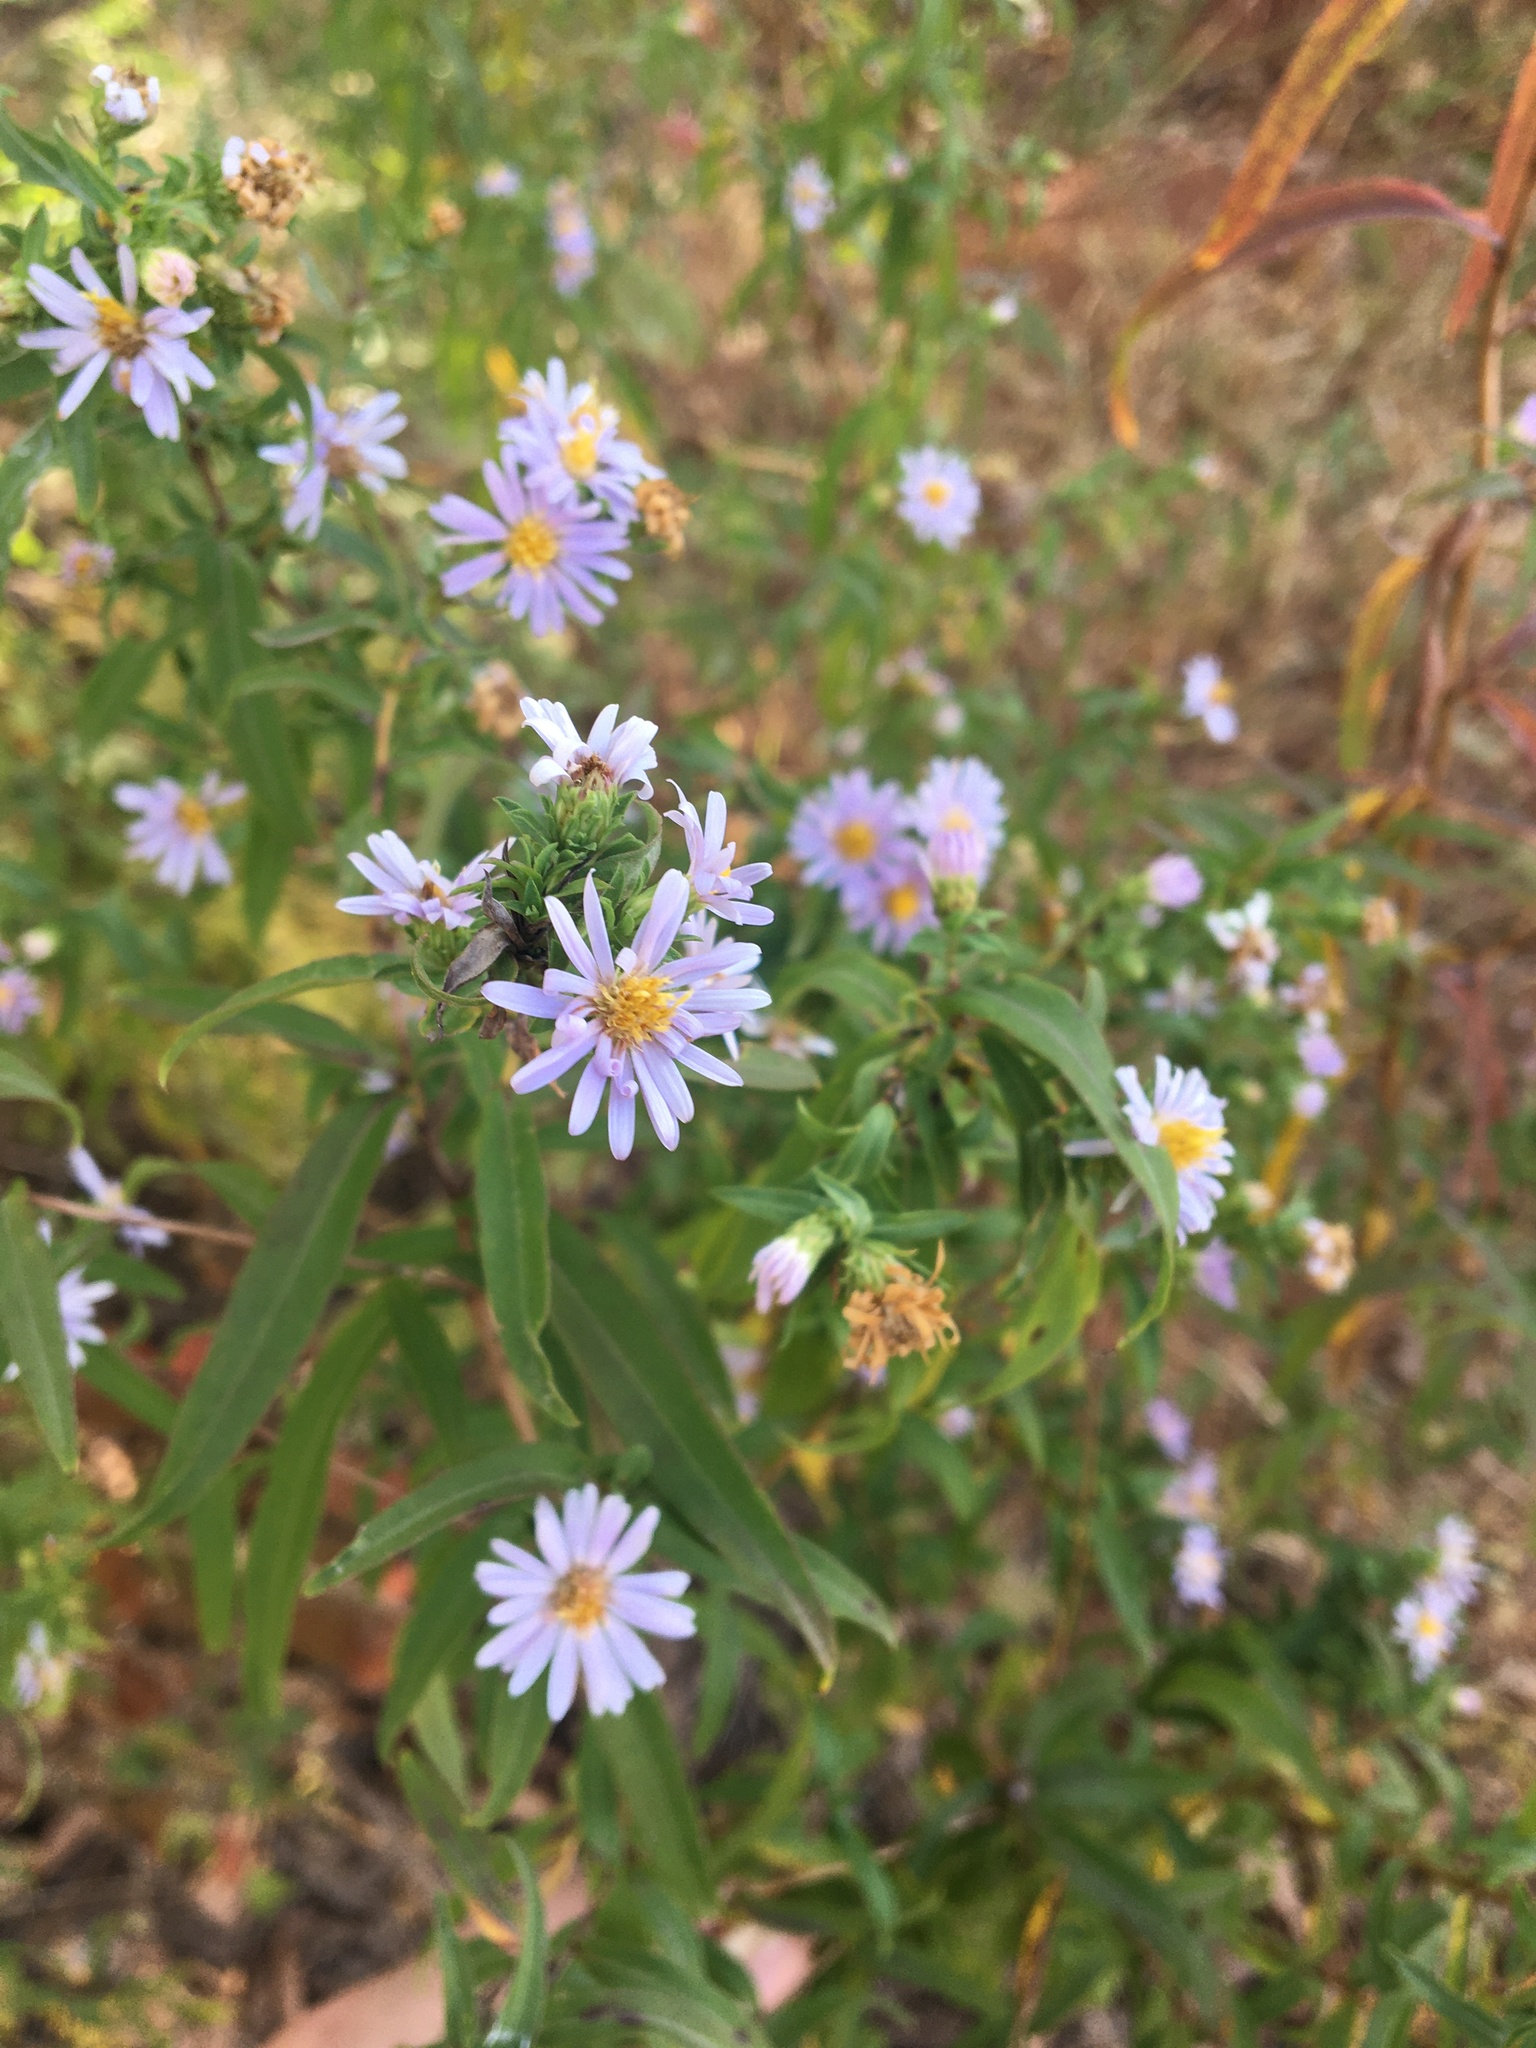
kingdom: Plantae
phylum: Tracheophyta
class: Magnoliopsida
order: Asterales
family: Asteraceae
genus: Symphyotrichum
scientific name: Symphyotrichum praealtum
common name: Willow aster
